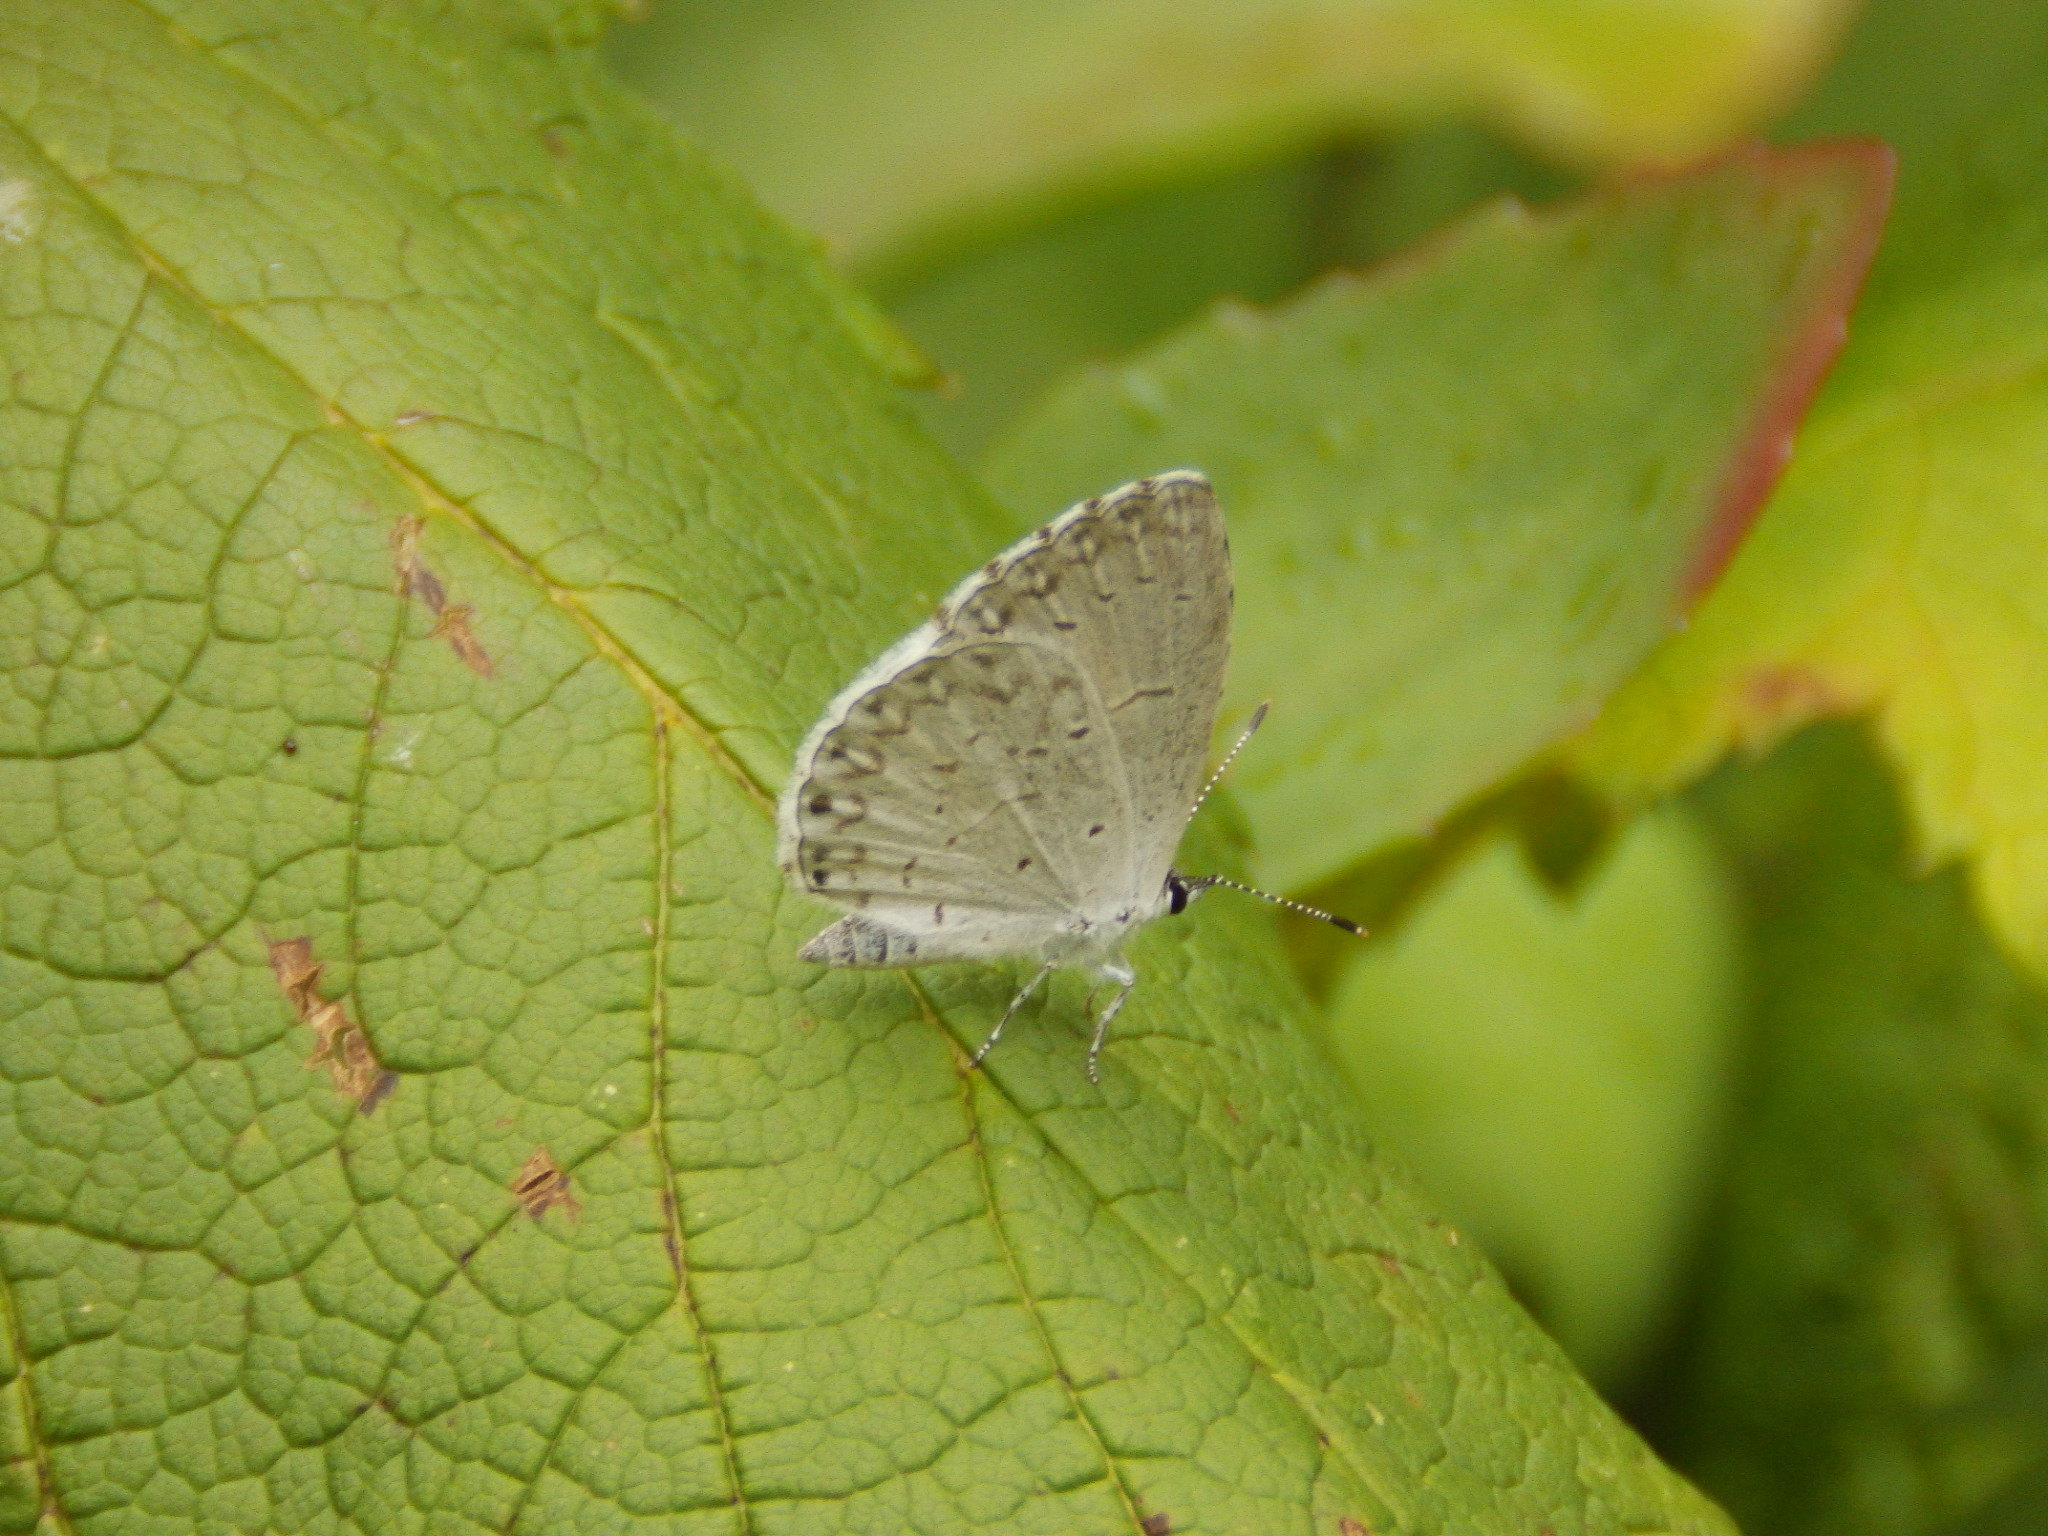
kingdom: Animalia
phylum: Arthropoda
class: Insecta
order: Lepidoptera
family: Lycaenidae
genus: Cyaniris
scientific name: Cyaniris neglecta
